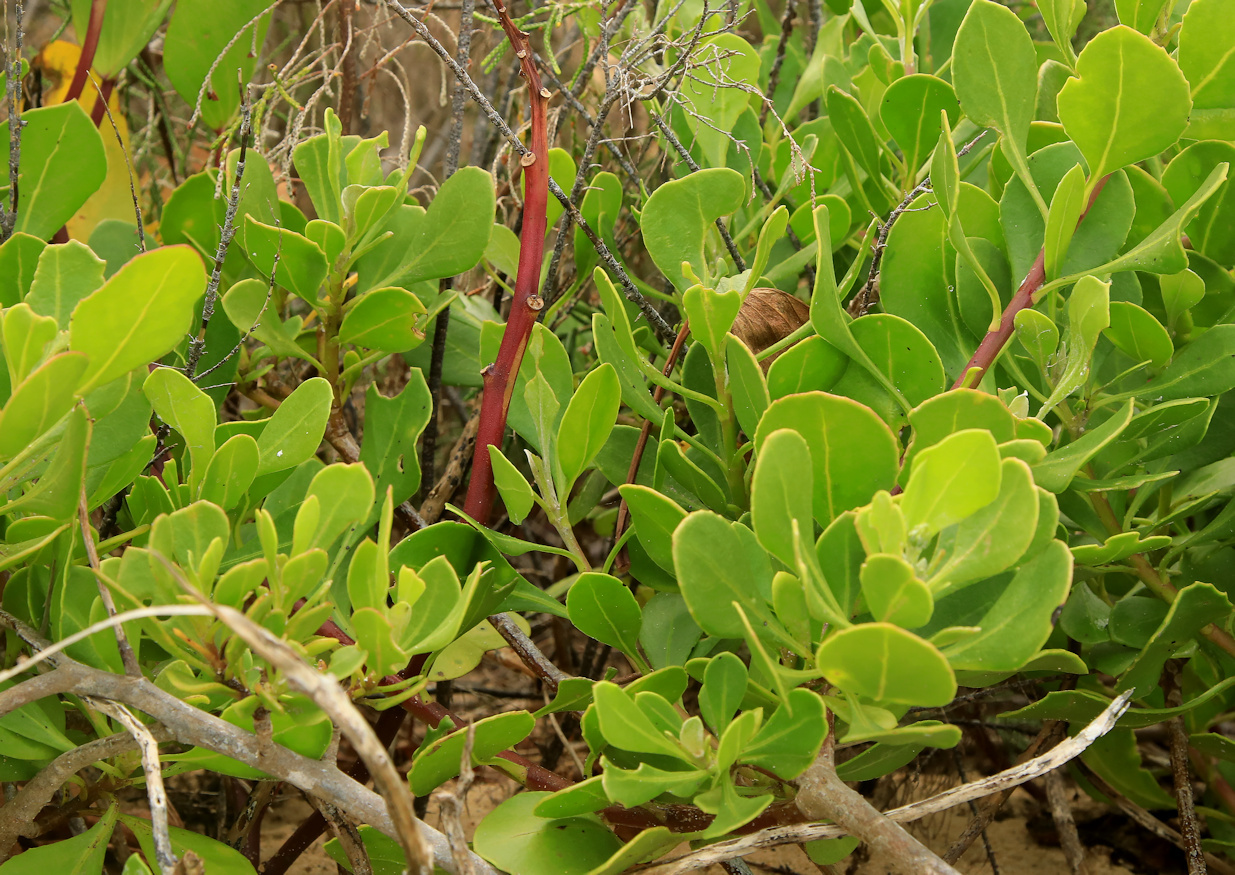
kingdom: Plantae
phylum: Tracheophyta
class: Magnoliopsida
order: Asterales
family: Asteraceae
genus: Osteospermum
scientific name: Osteospermum moniliferum
